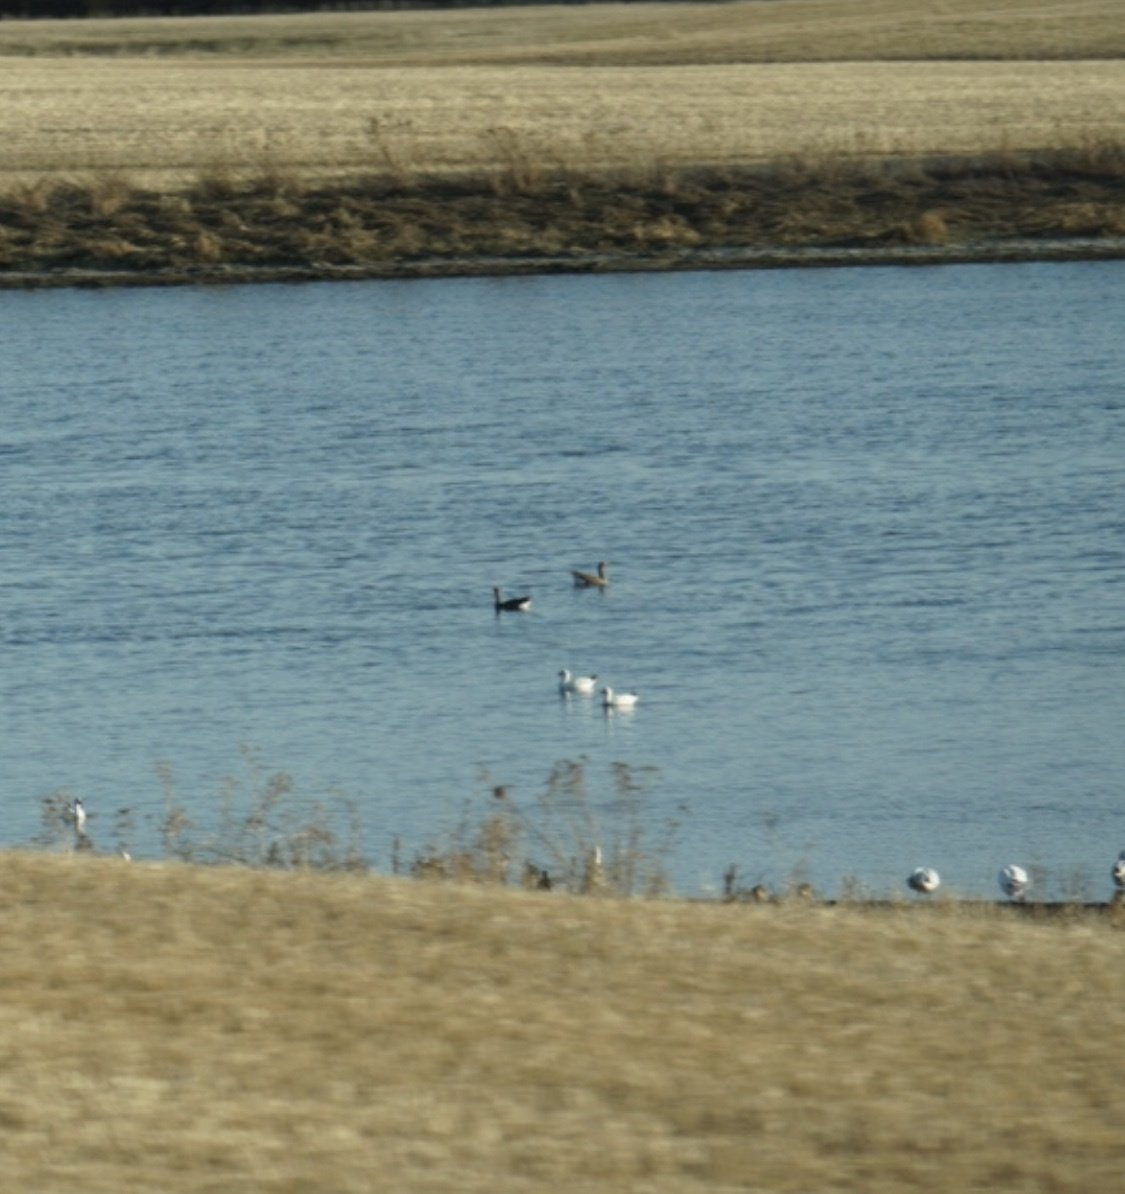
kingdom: Animalia
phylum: Chordata
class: Aves
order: Anseriformes
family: Anatidae
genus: Anser
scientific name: Anser caerulescens
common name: Snow goose
